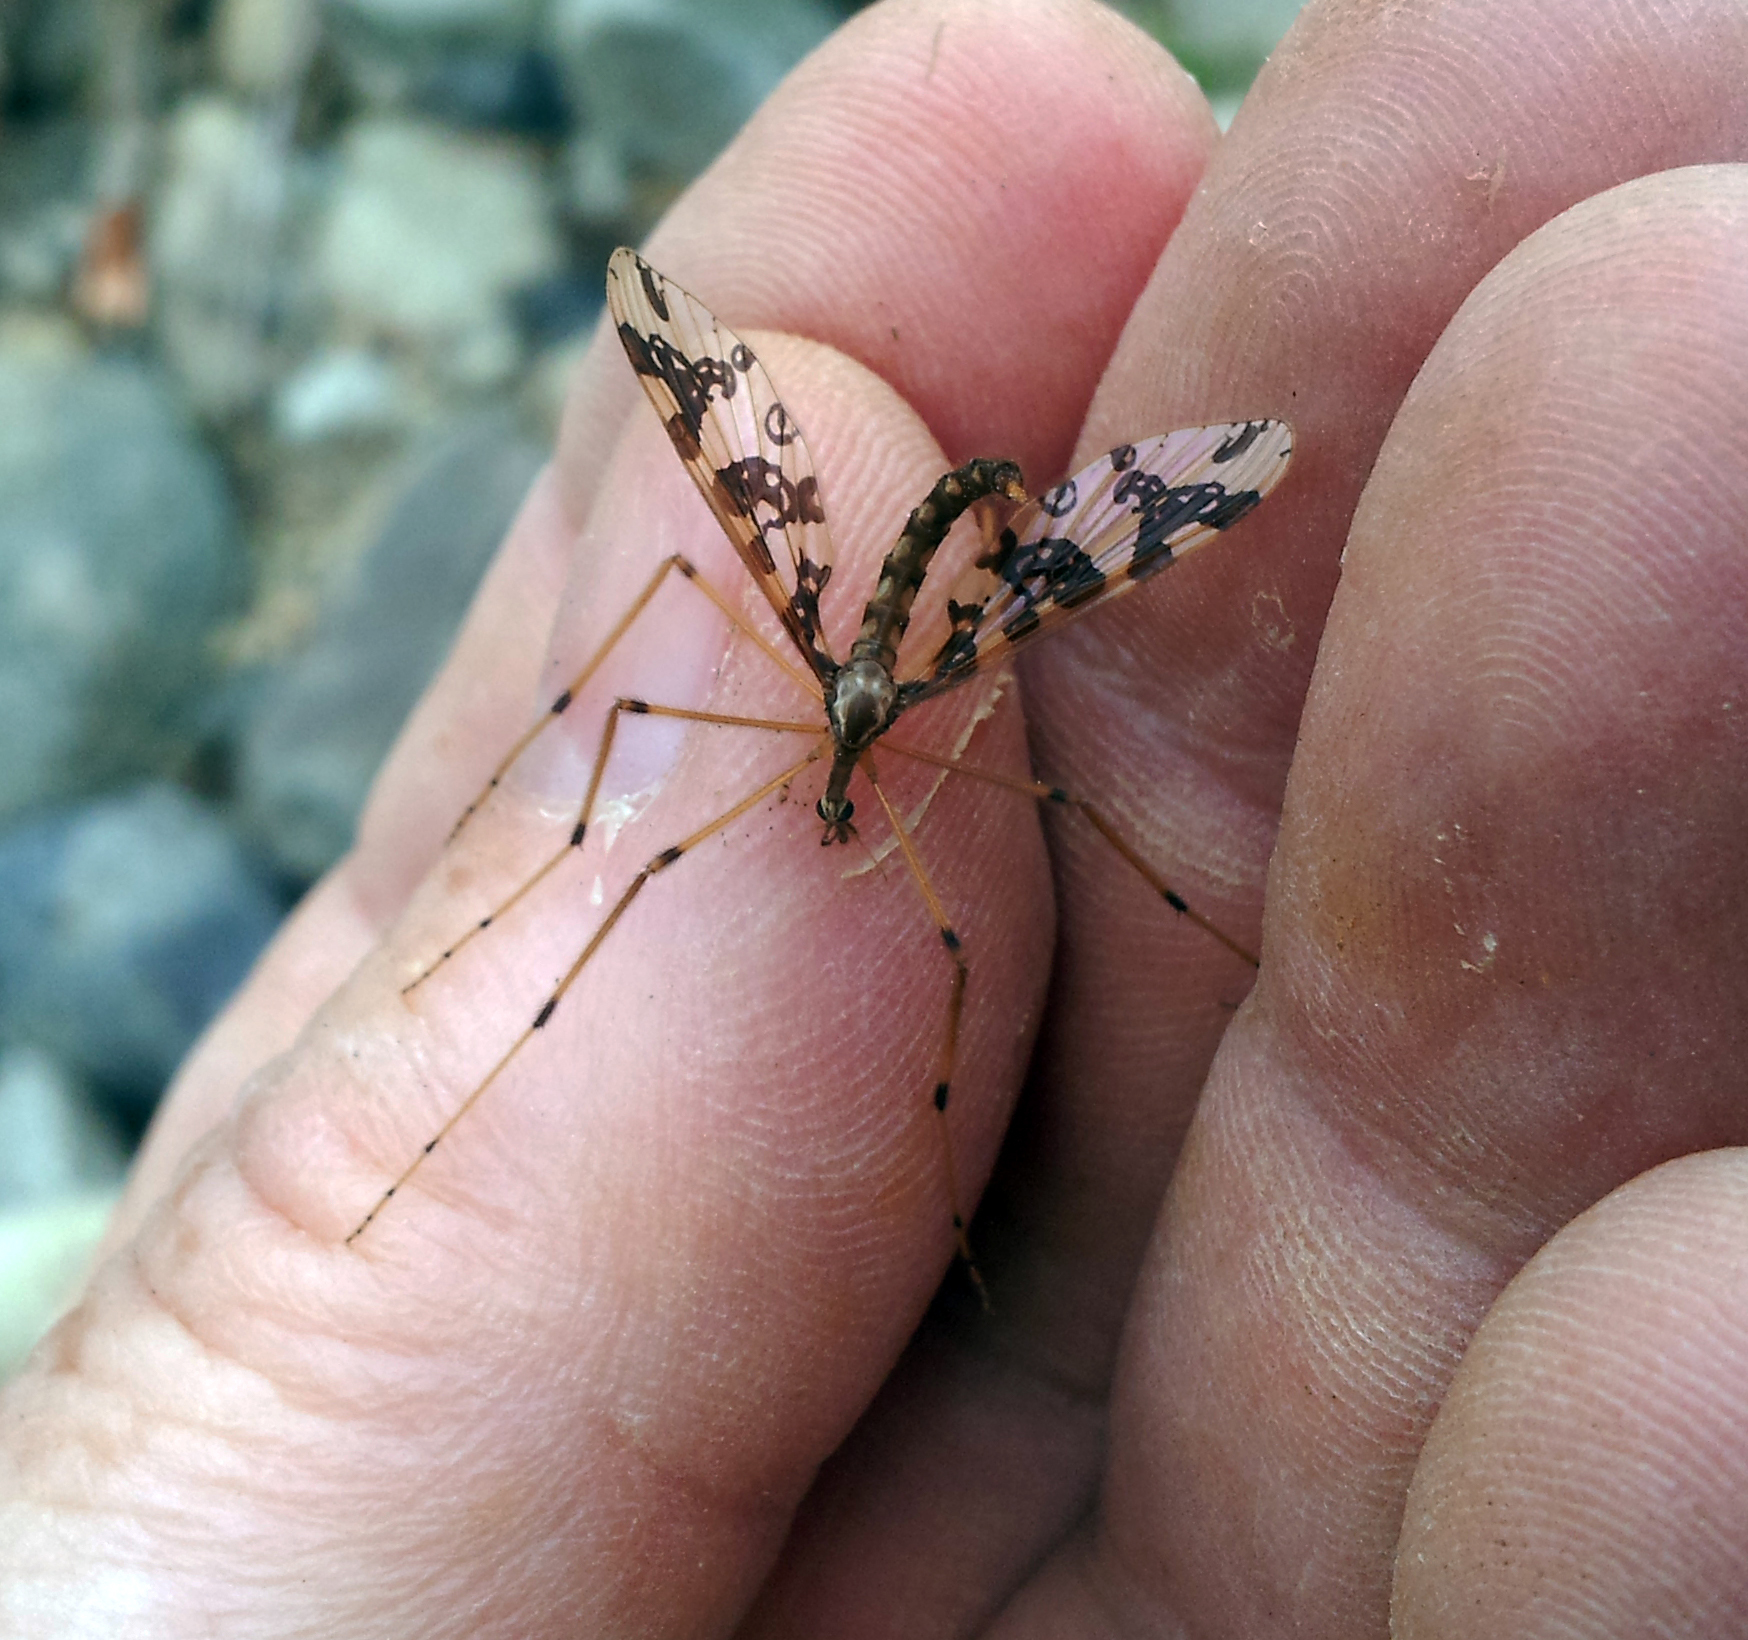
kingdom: Animalia
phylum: Arthropoda
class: Insecta
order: Diptera
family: Tanyderidae
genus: Tanyderus
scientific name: Tanyderus annuliferus
